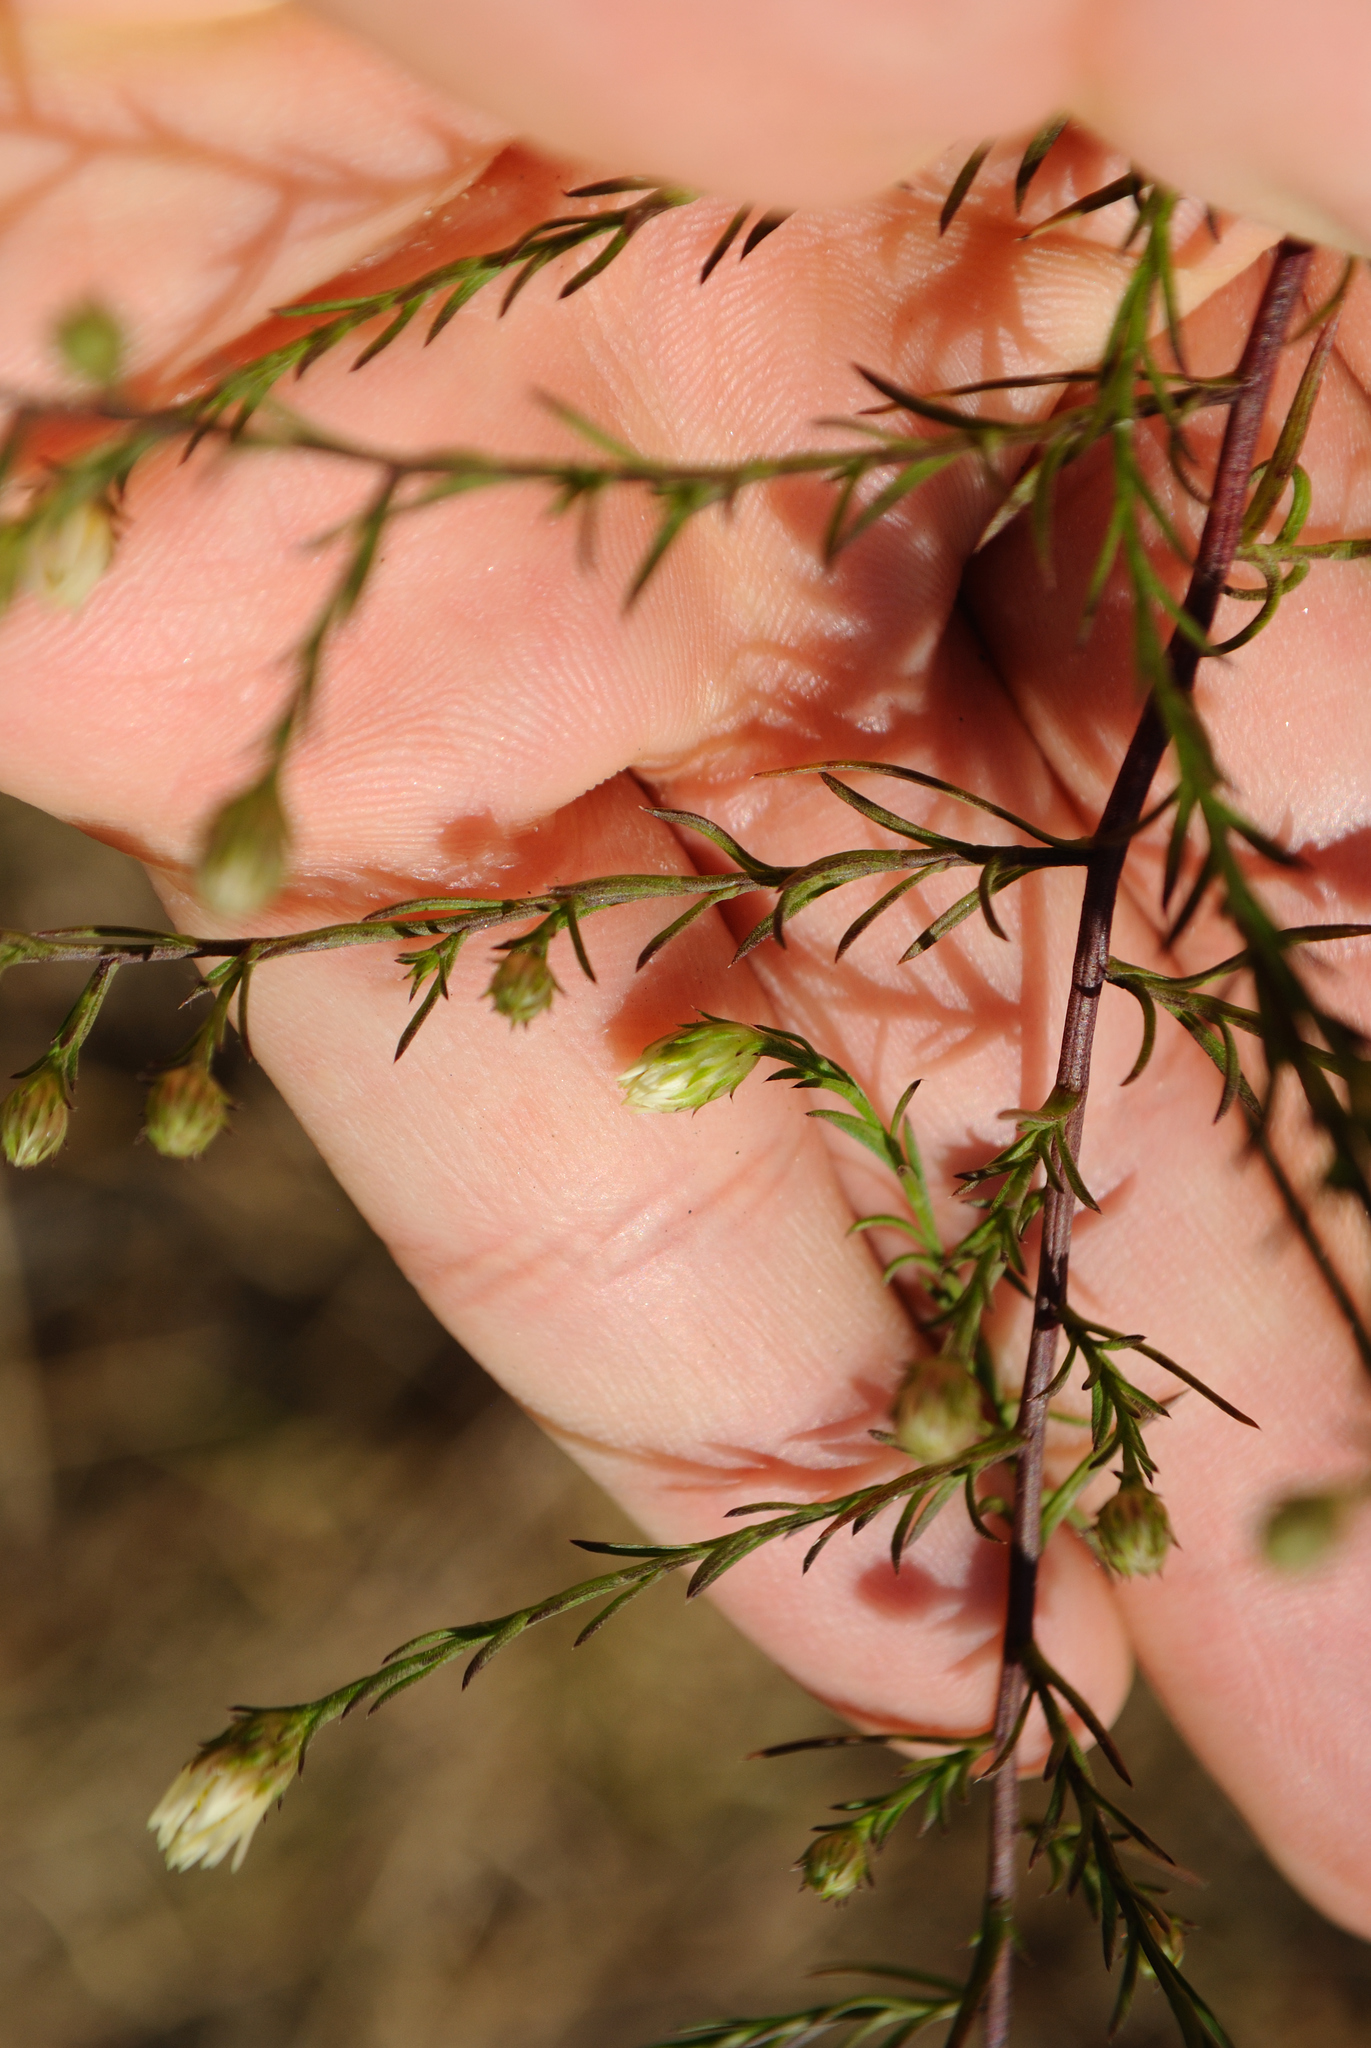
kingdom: Plantae
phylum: Tracheophyta
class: Magnoliopsida
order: Asterales
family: Asteraceae
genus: Symphyotrichum
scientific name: Symphyotrichum pilosum
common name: Awl aster
